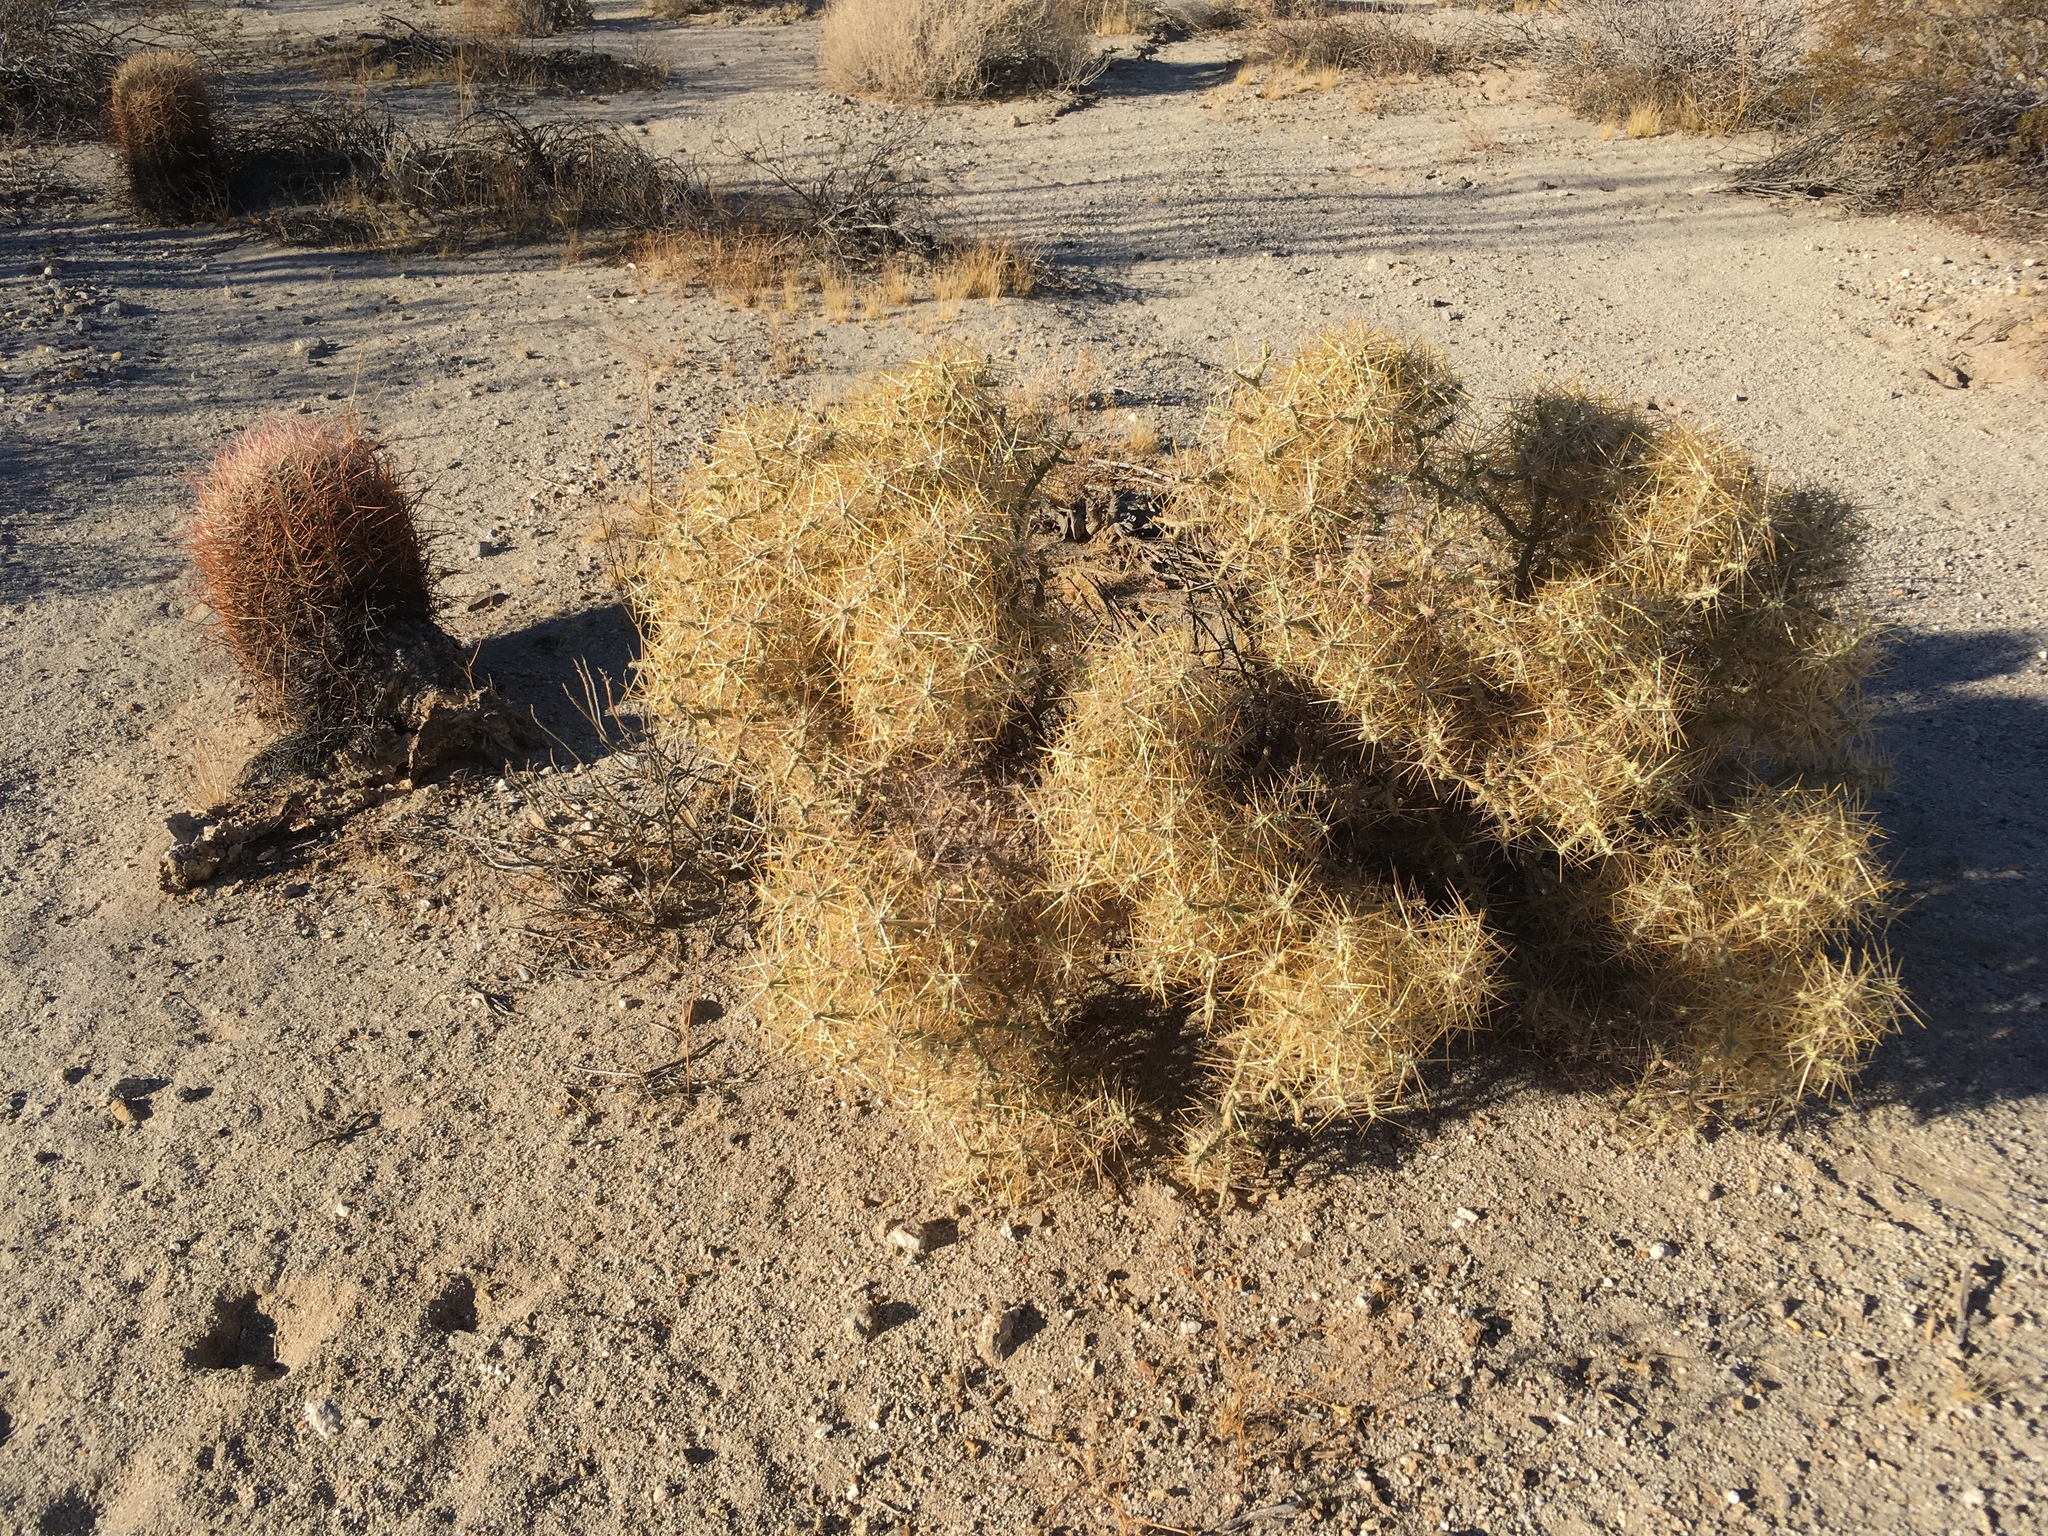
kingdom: Plantae
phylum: Tracheophyta
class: Magnoliopsida
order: Caryophyllales
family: Cactaceae
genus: Cylindropuntia
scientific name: Cylindropuntia ramosissima
